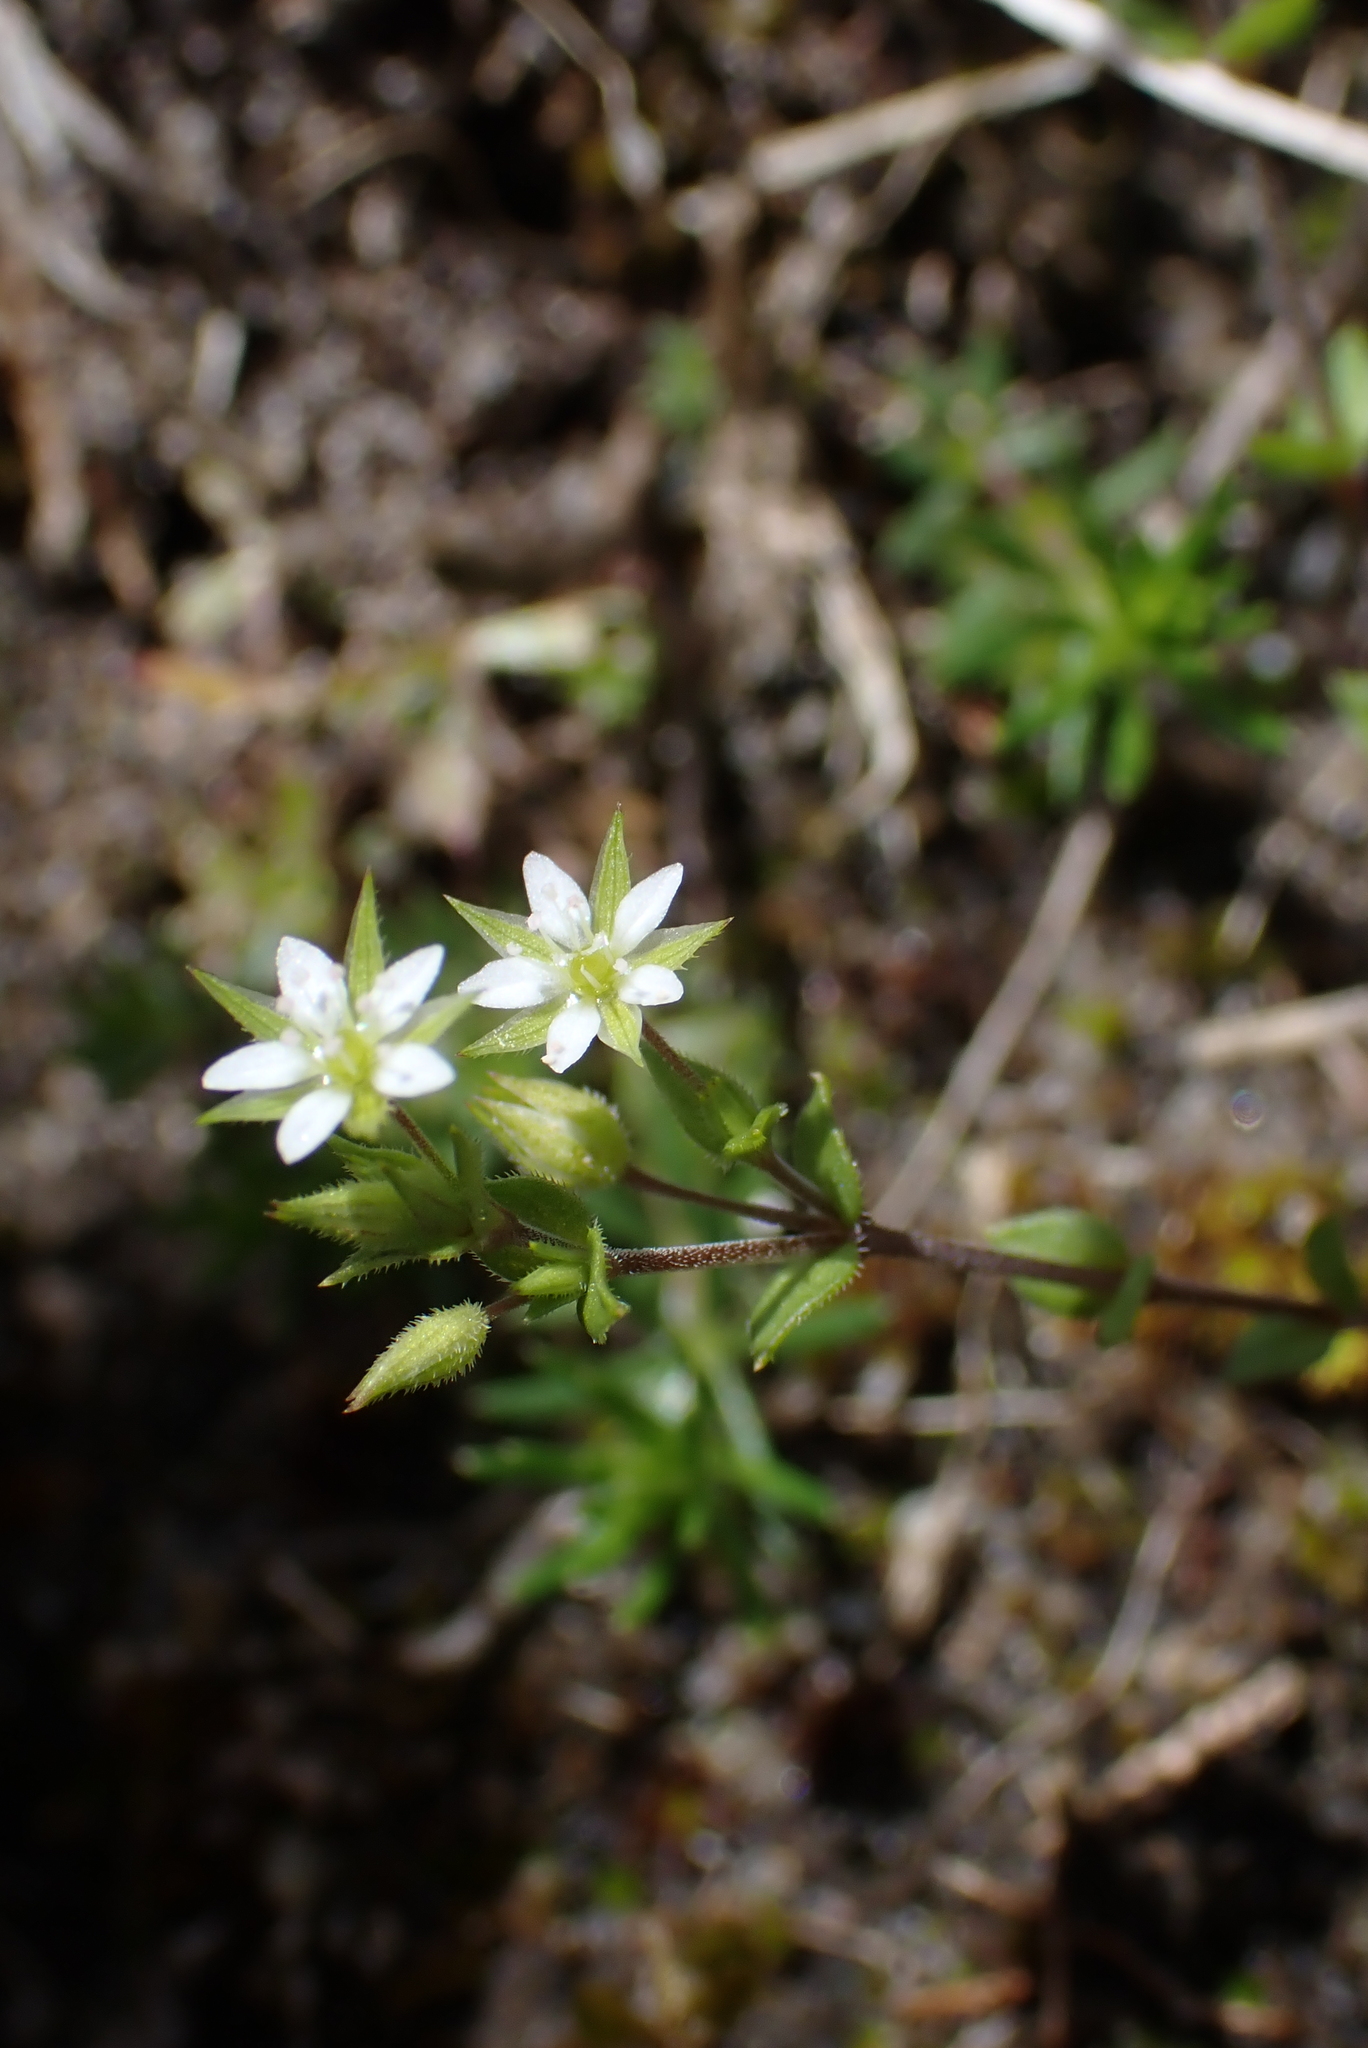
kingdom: Plantae
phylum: Tracheophyta
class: Magnoliopsida
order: Caryophyllales
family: Caryophyllaceae
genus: Arenaria
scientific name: Arenaria serpyllifolia
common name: Thyme-leaved sandwort
